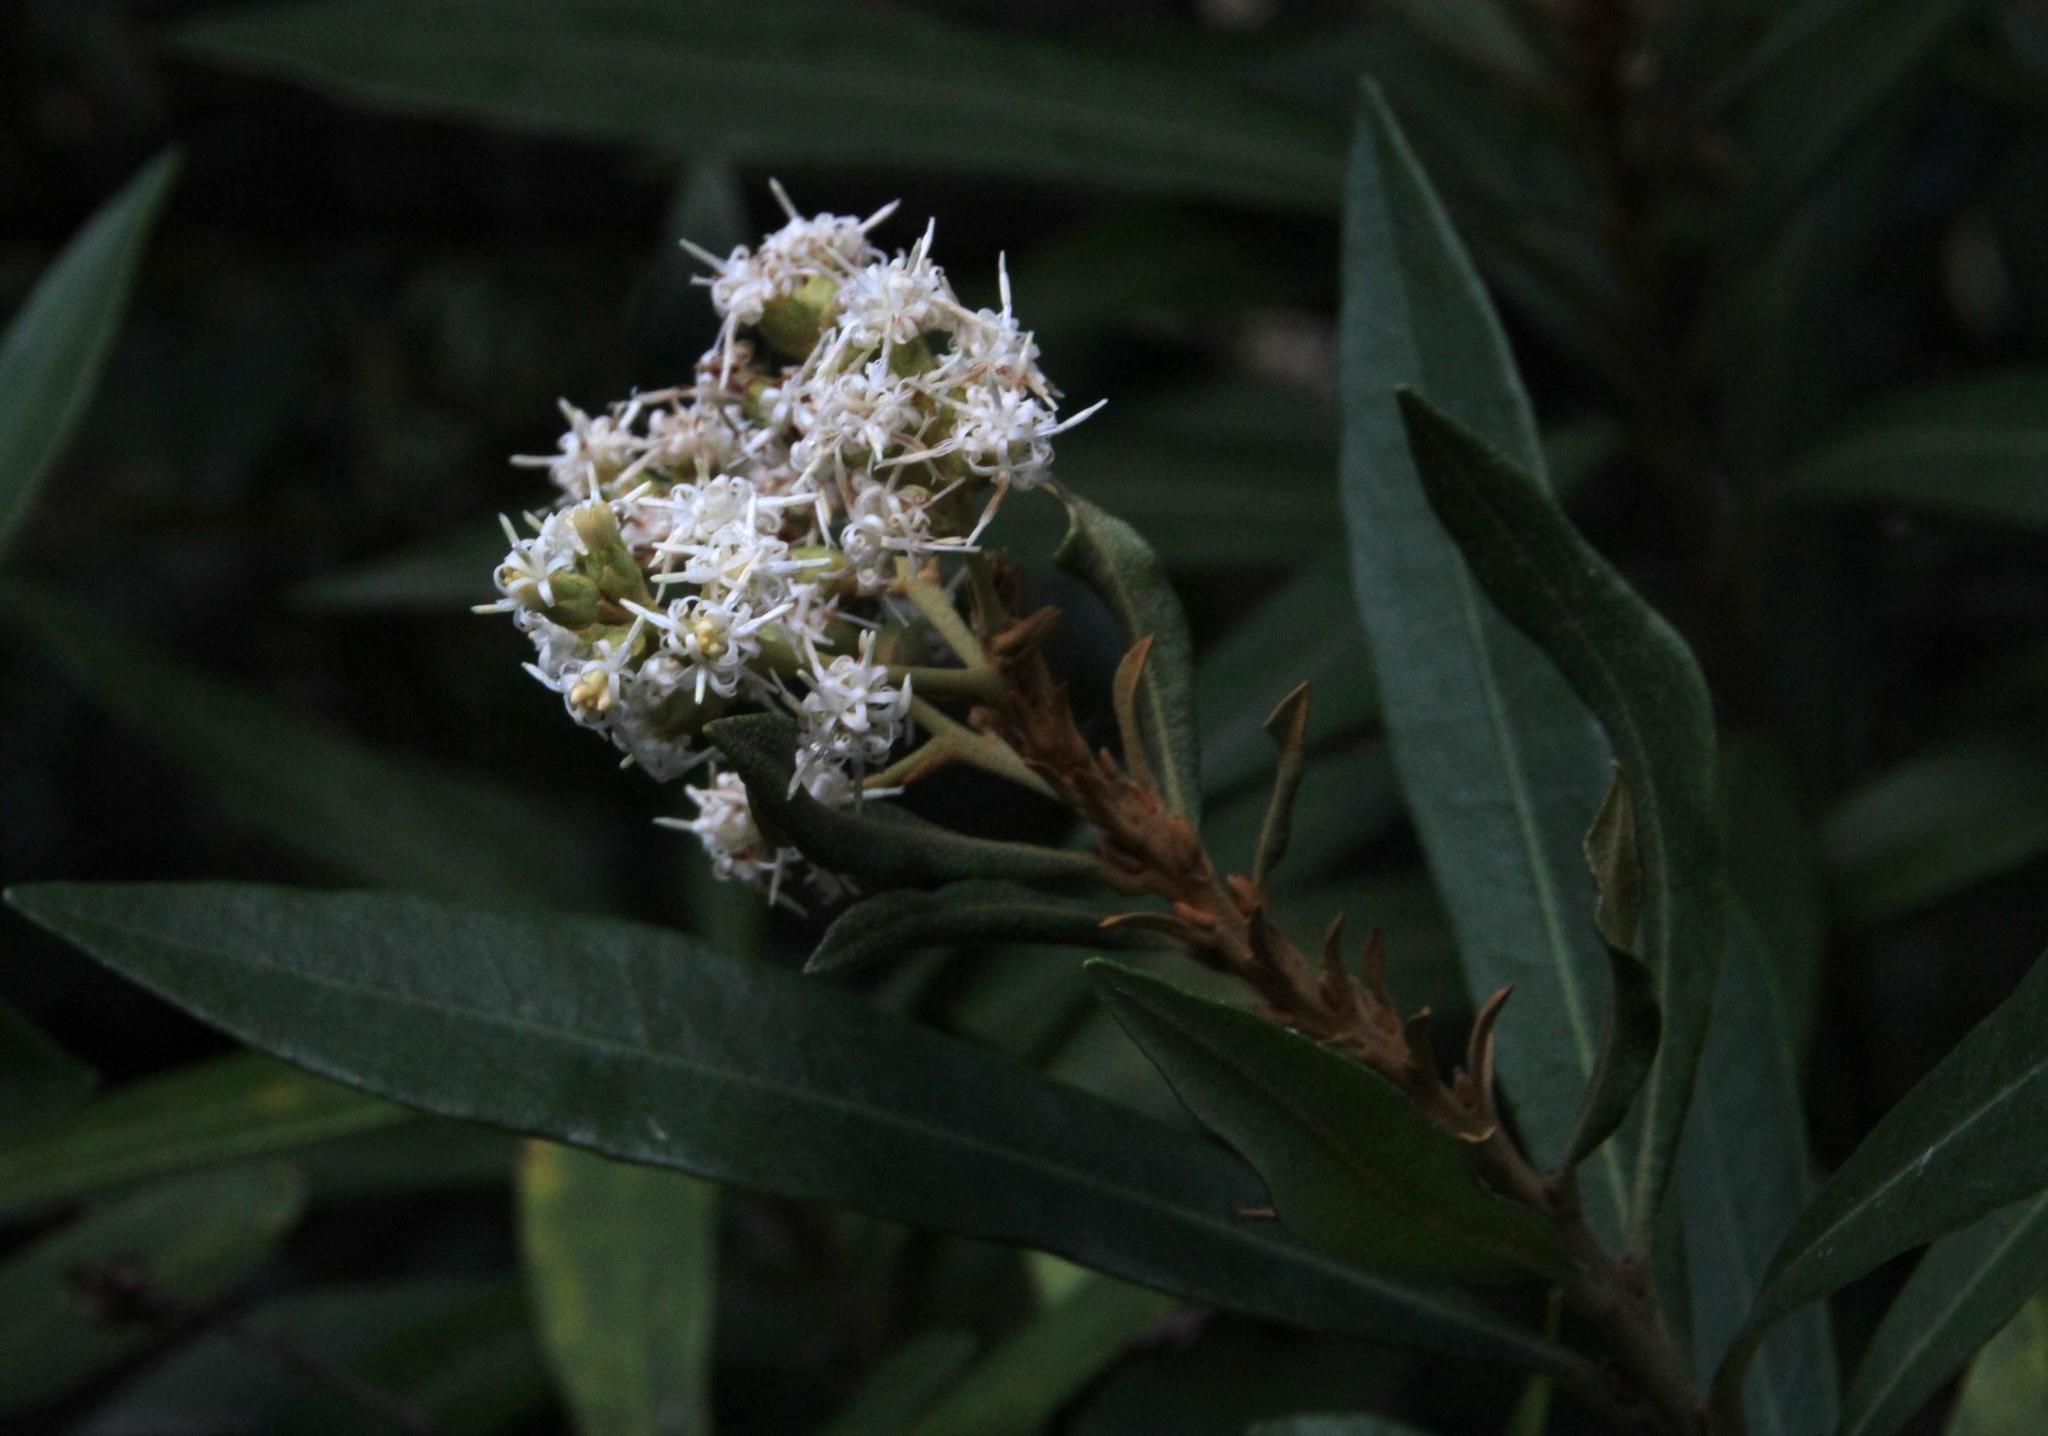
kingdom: Plantae
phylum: Tracheophyta
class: Magnoliopsida
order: Asterales
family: Asteraceae
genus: Brachylaena
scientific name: Brachylaena neriifolia
